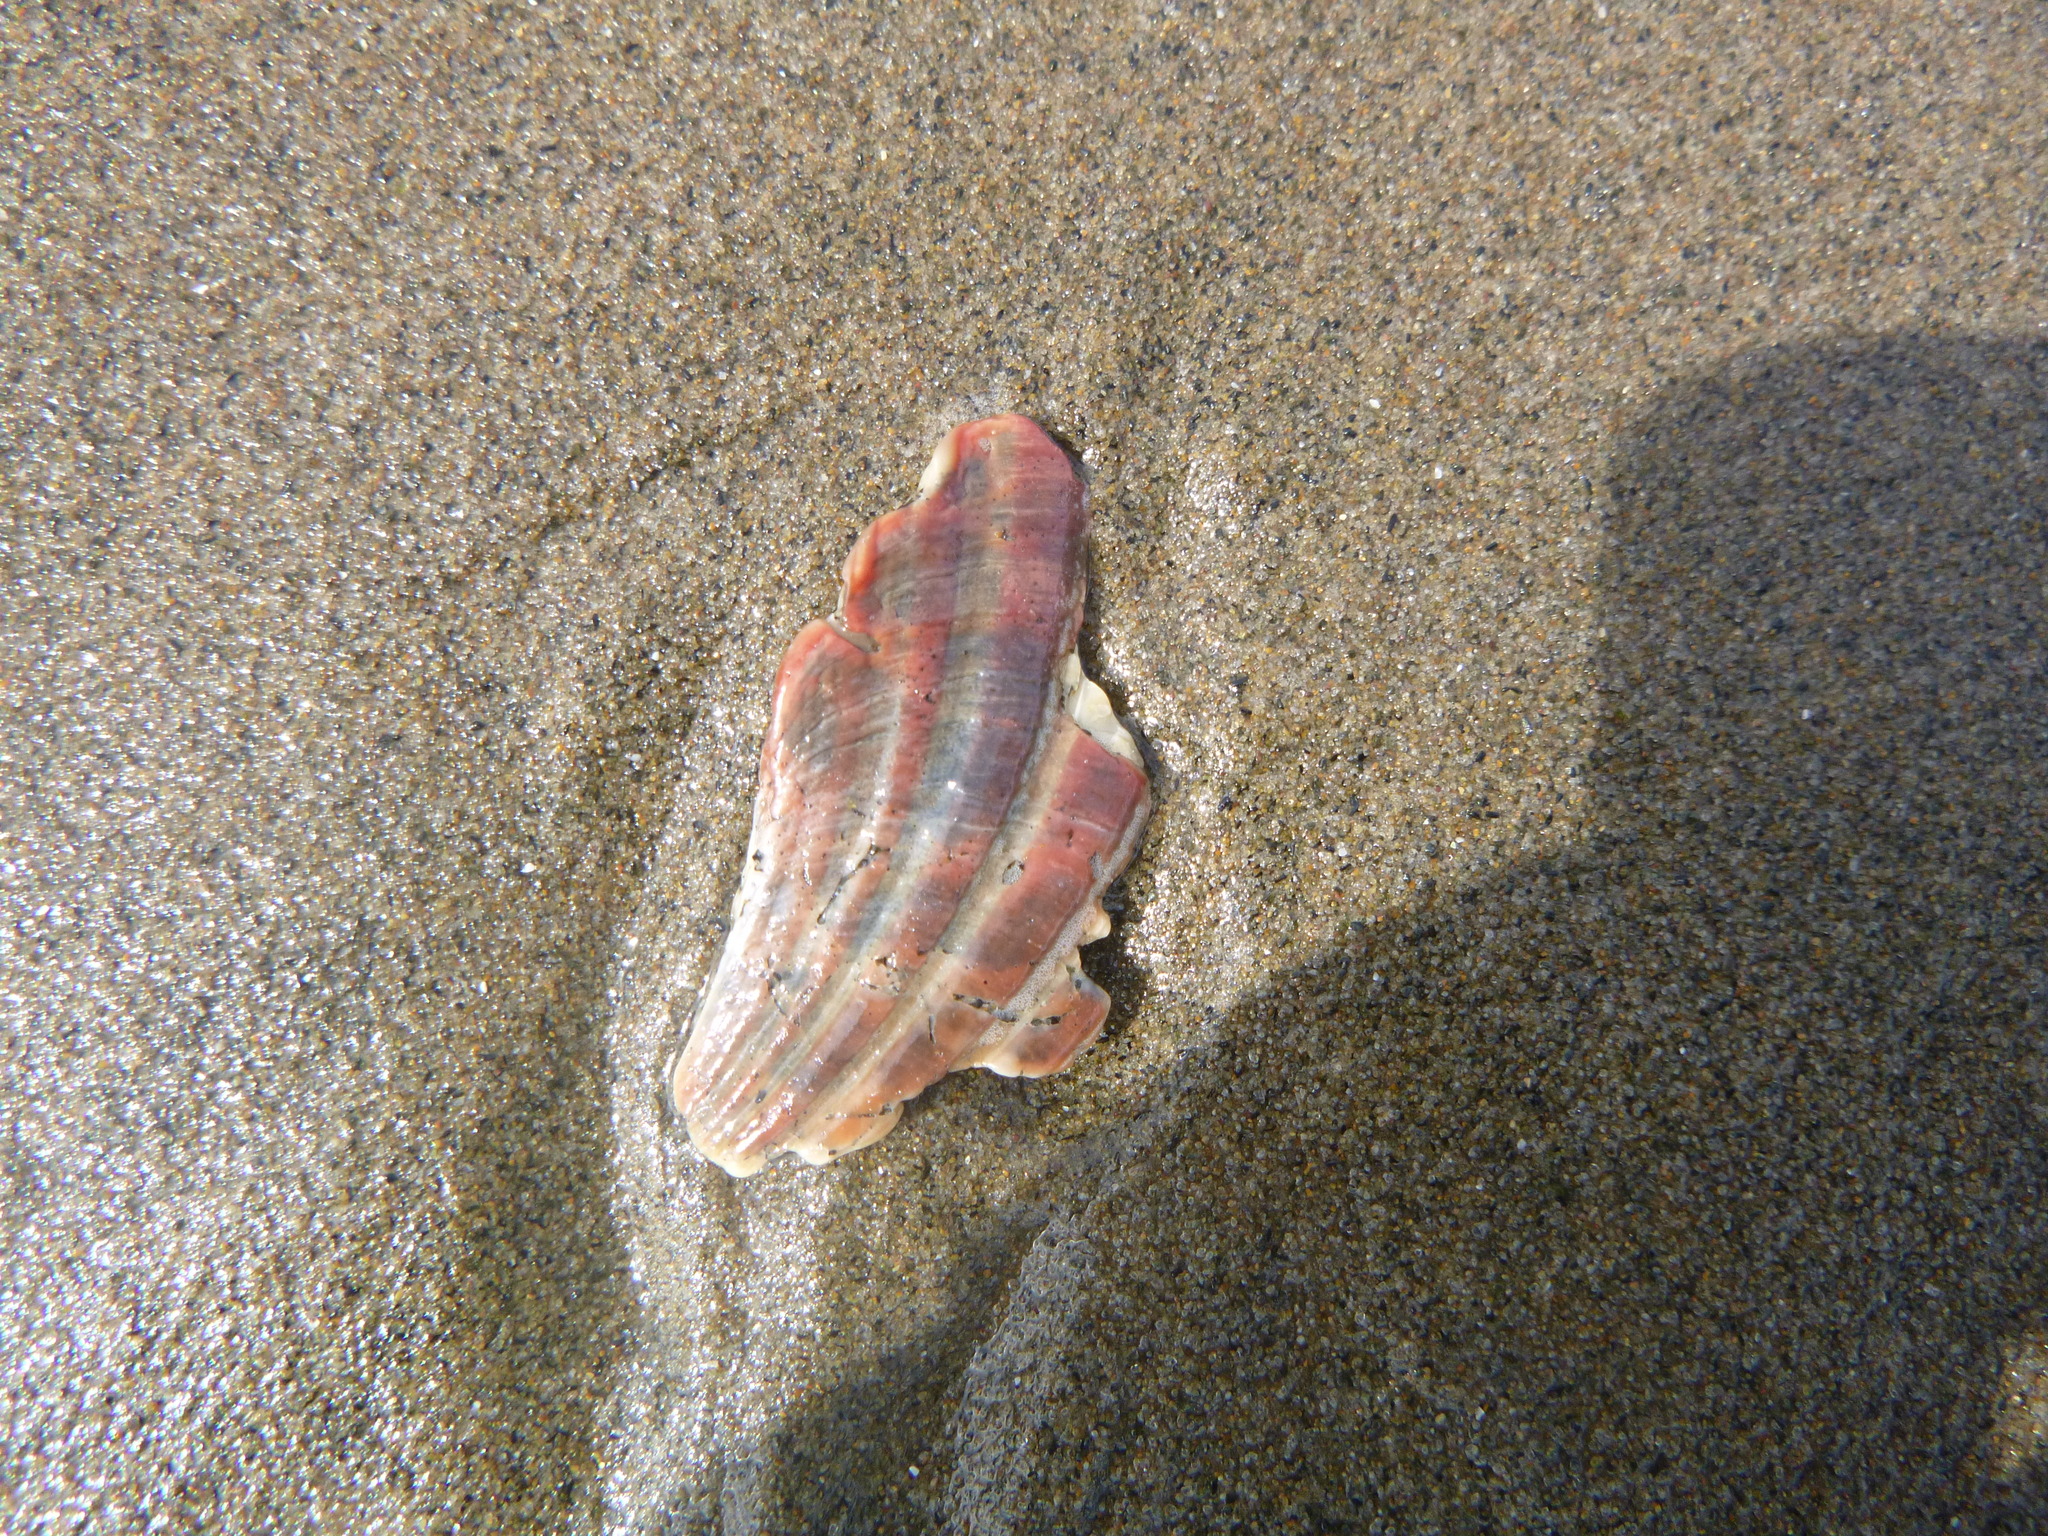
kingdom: Animalia
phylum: Mollusca
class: Bivalvia
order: Pectinida
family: Pectinidae
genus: Pecten
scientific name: Pecten novaezelandiae
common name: New zealand scallop
